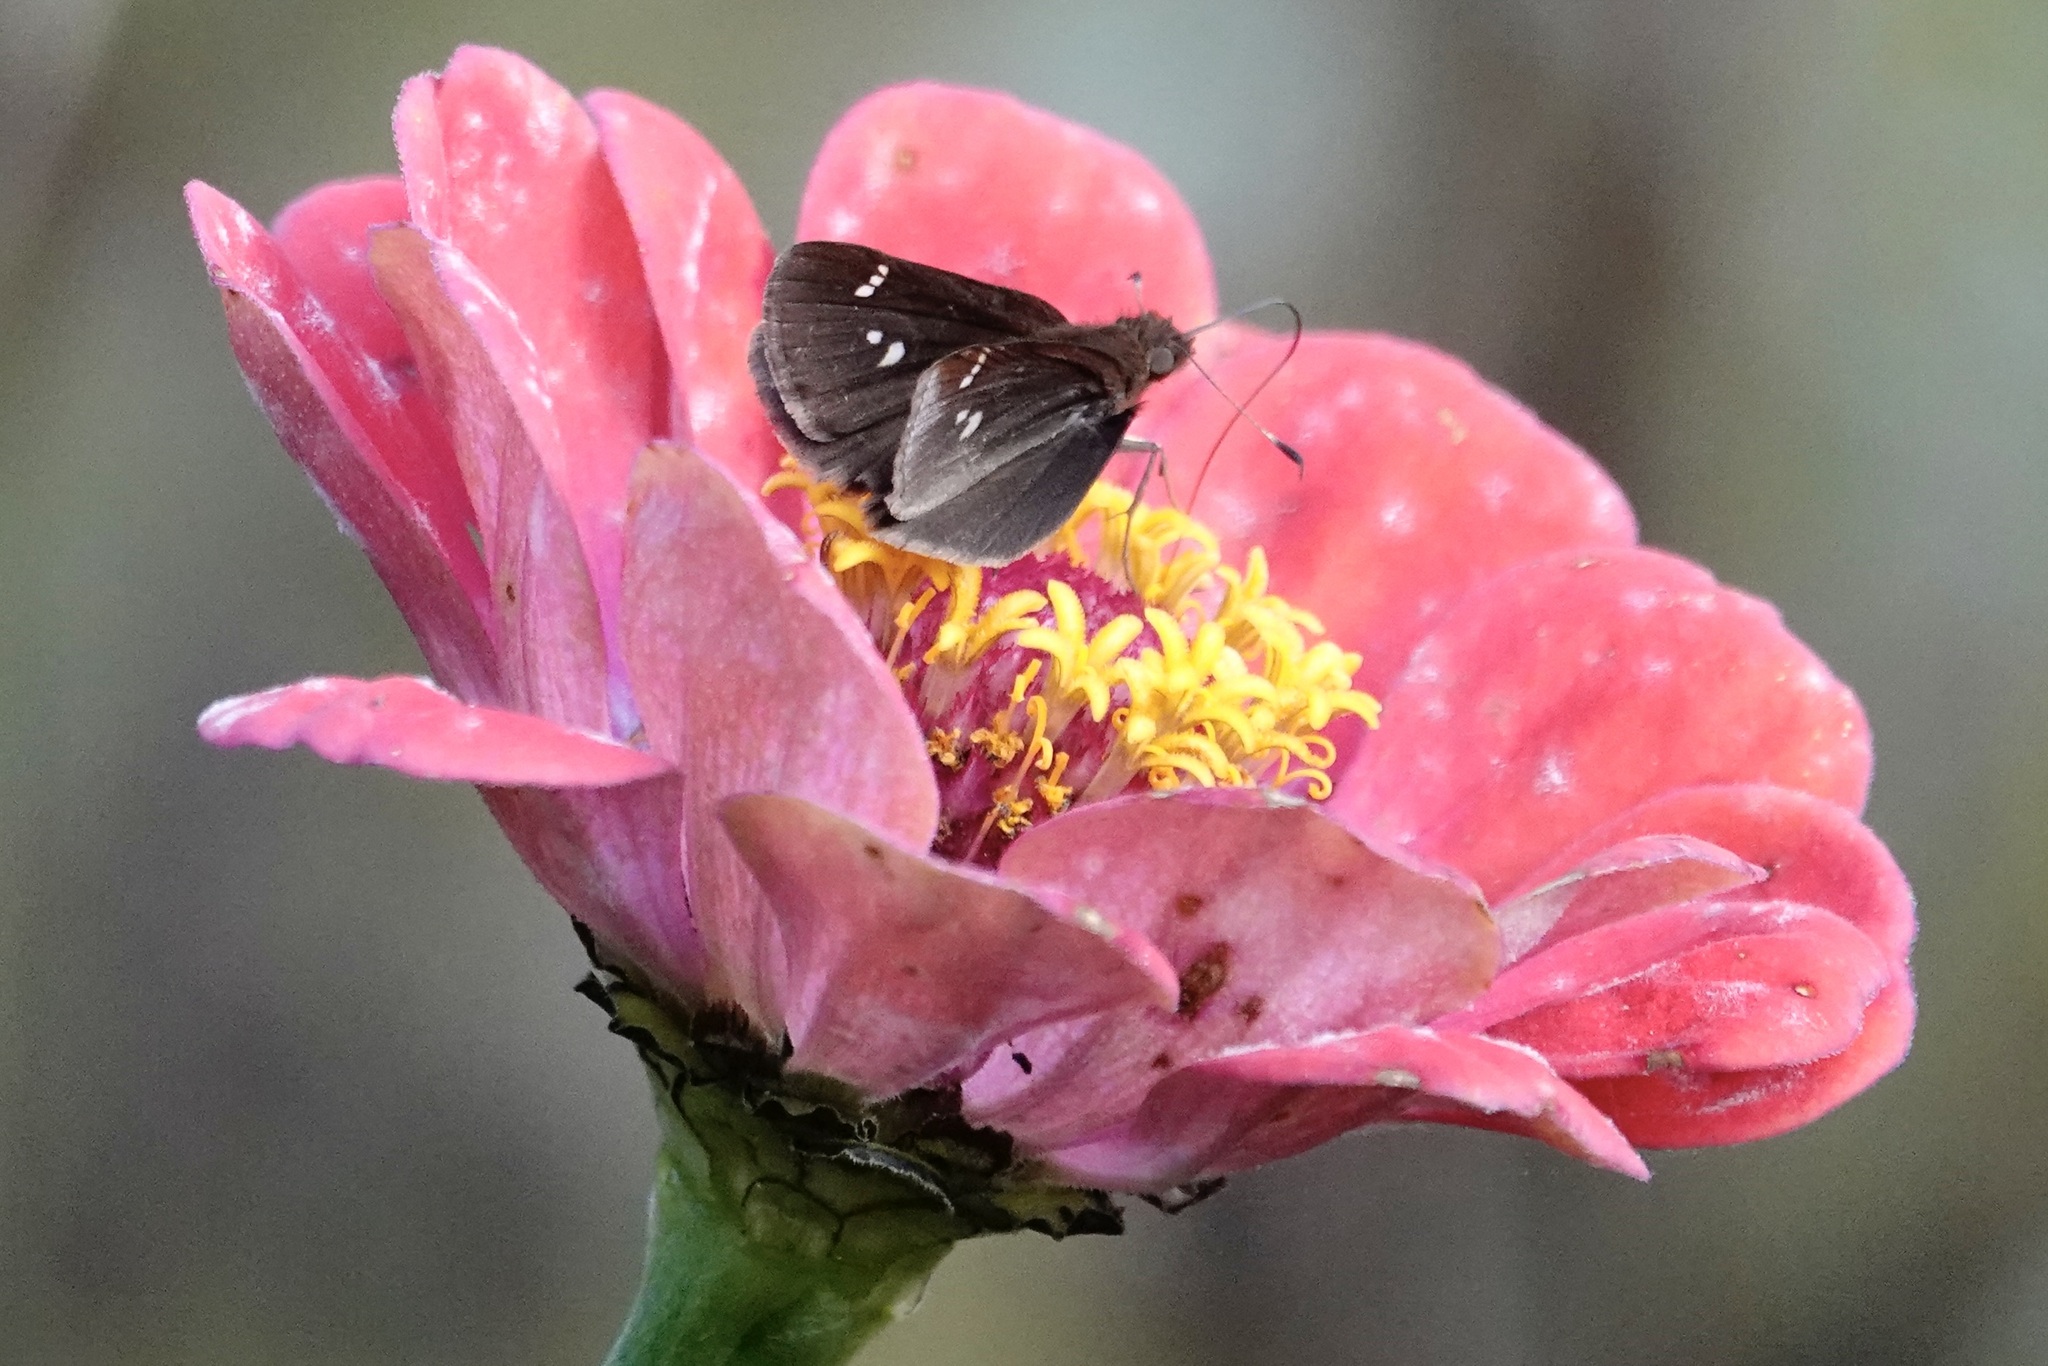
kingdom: Animalia
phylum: Arthropoda
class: Insecta
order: Lepidoptera
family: Hesperiidae
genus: Lerema
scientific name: Lerema accius
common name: Clouded skipper
